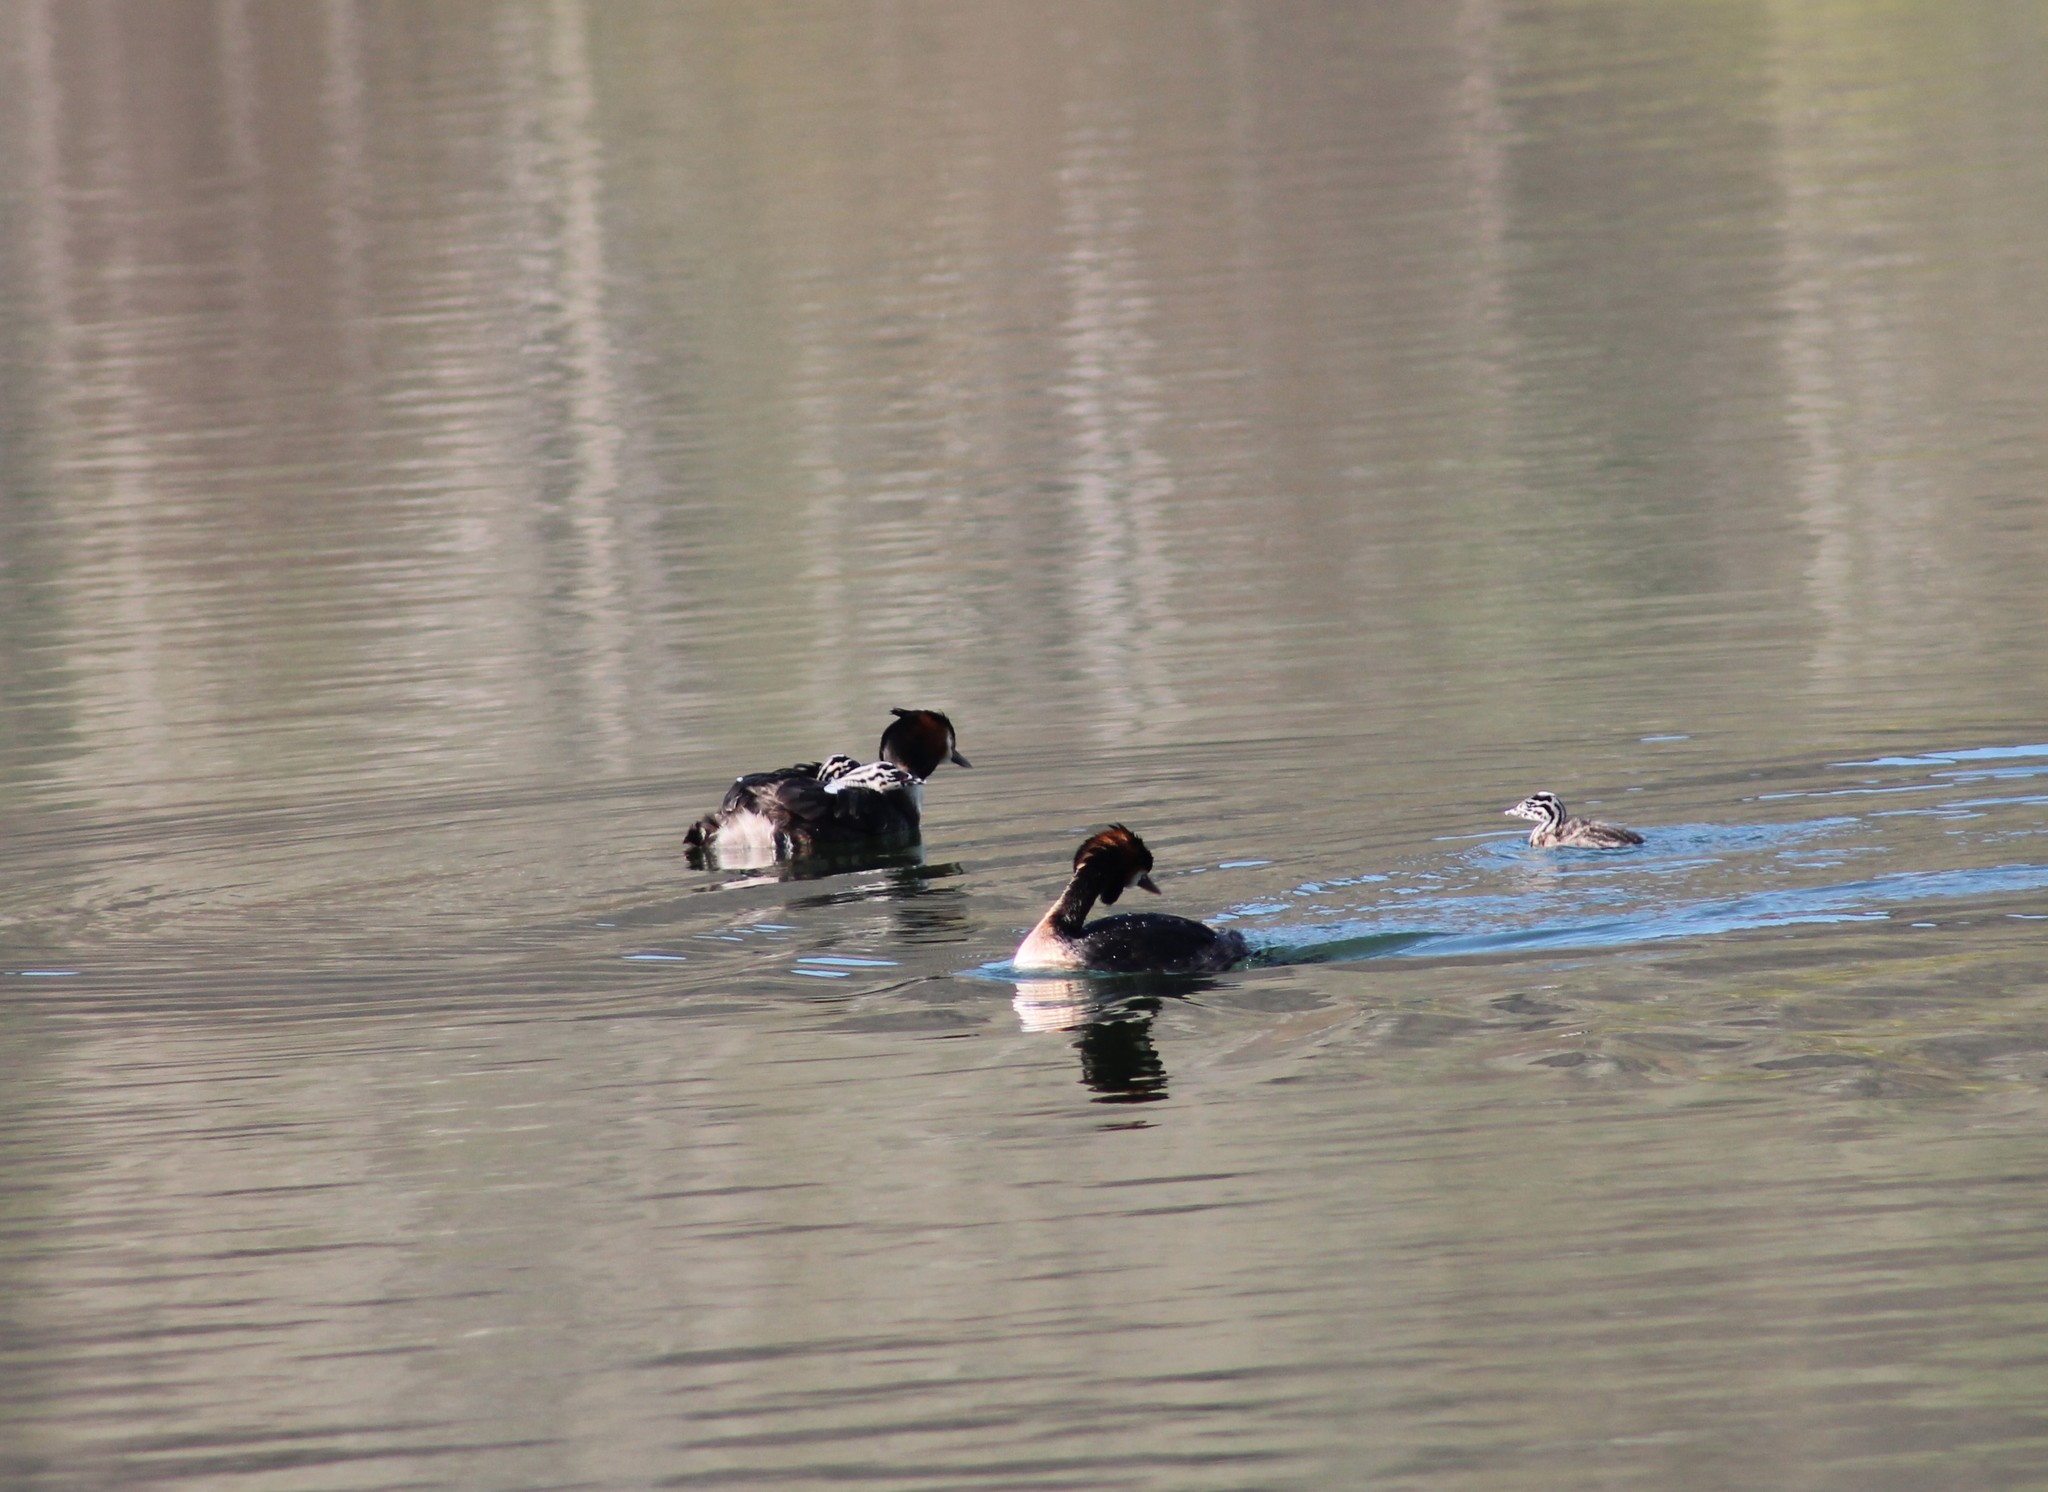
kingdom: Animalia
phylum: Chordata
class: Aves
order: Podicipediformes
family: Podicipedidae
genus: Podiceps
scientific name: Podiceps cristatus
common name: Great crested grebe
